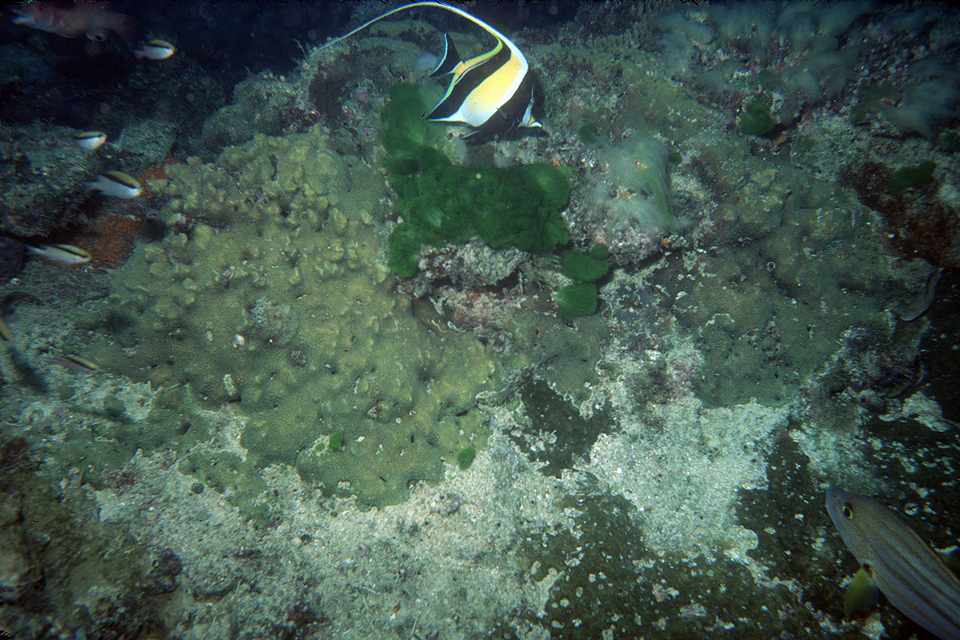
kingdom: Animalia
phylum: Chordata
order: Perciformes
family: Zanclidae
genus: Zanclus
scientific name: Zanclus cornutus
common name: Moorish idol
